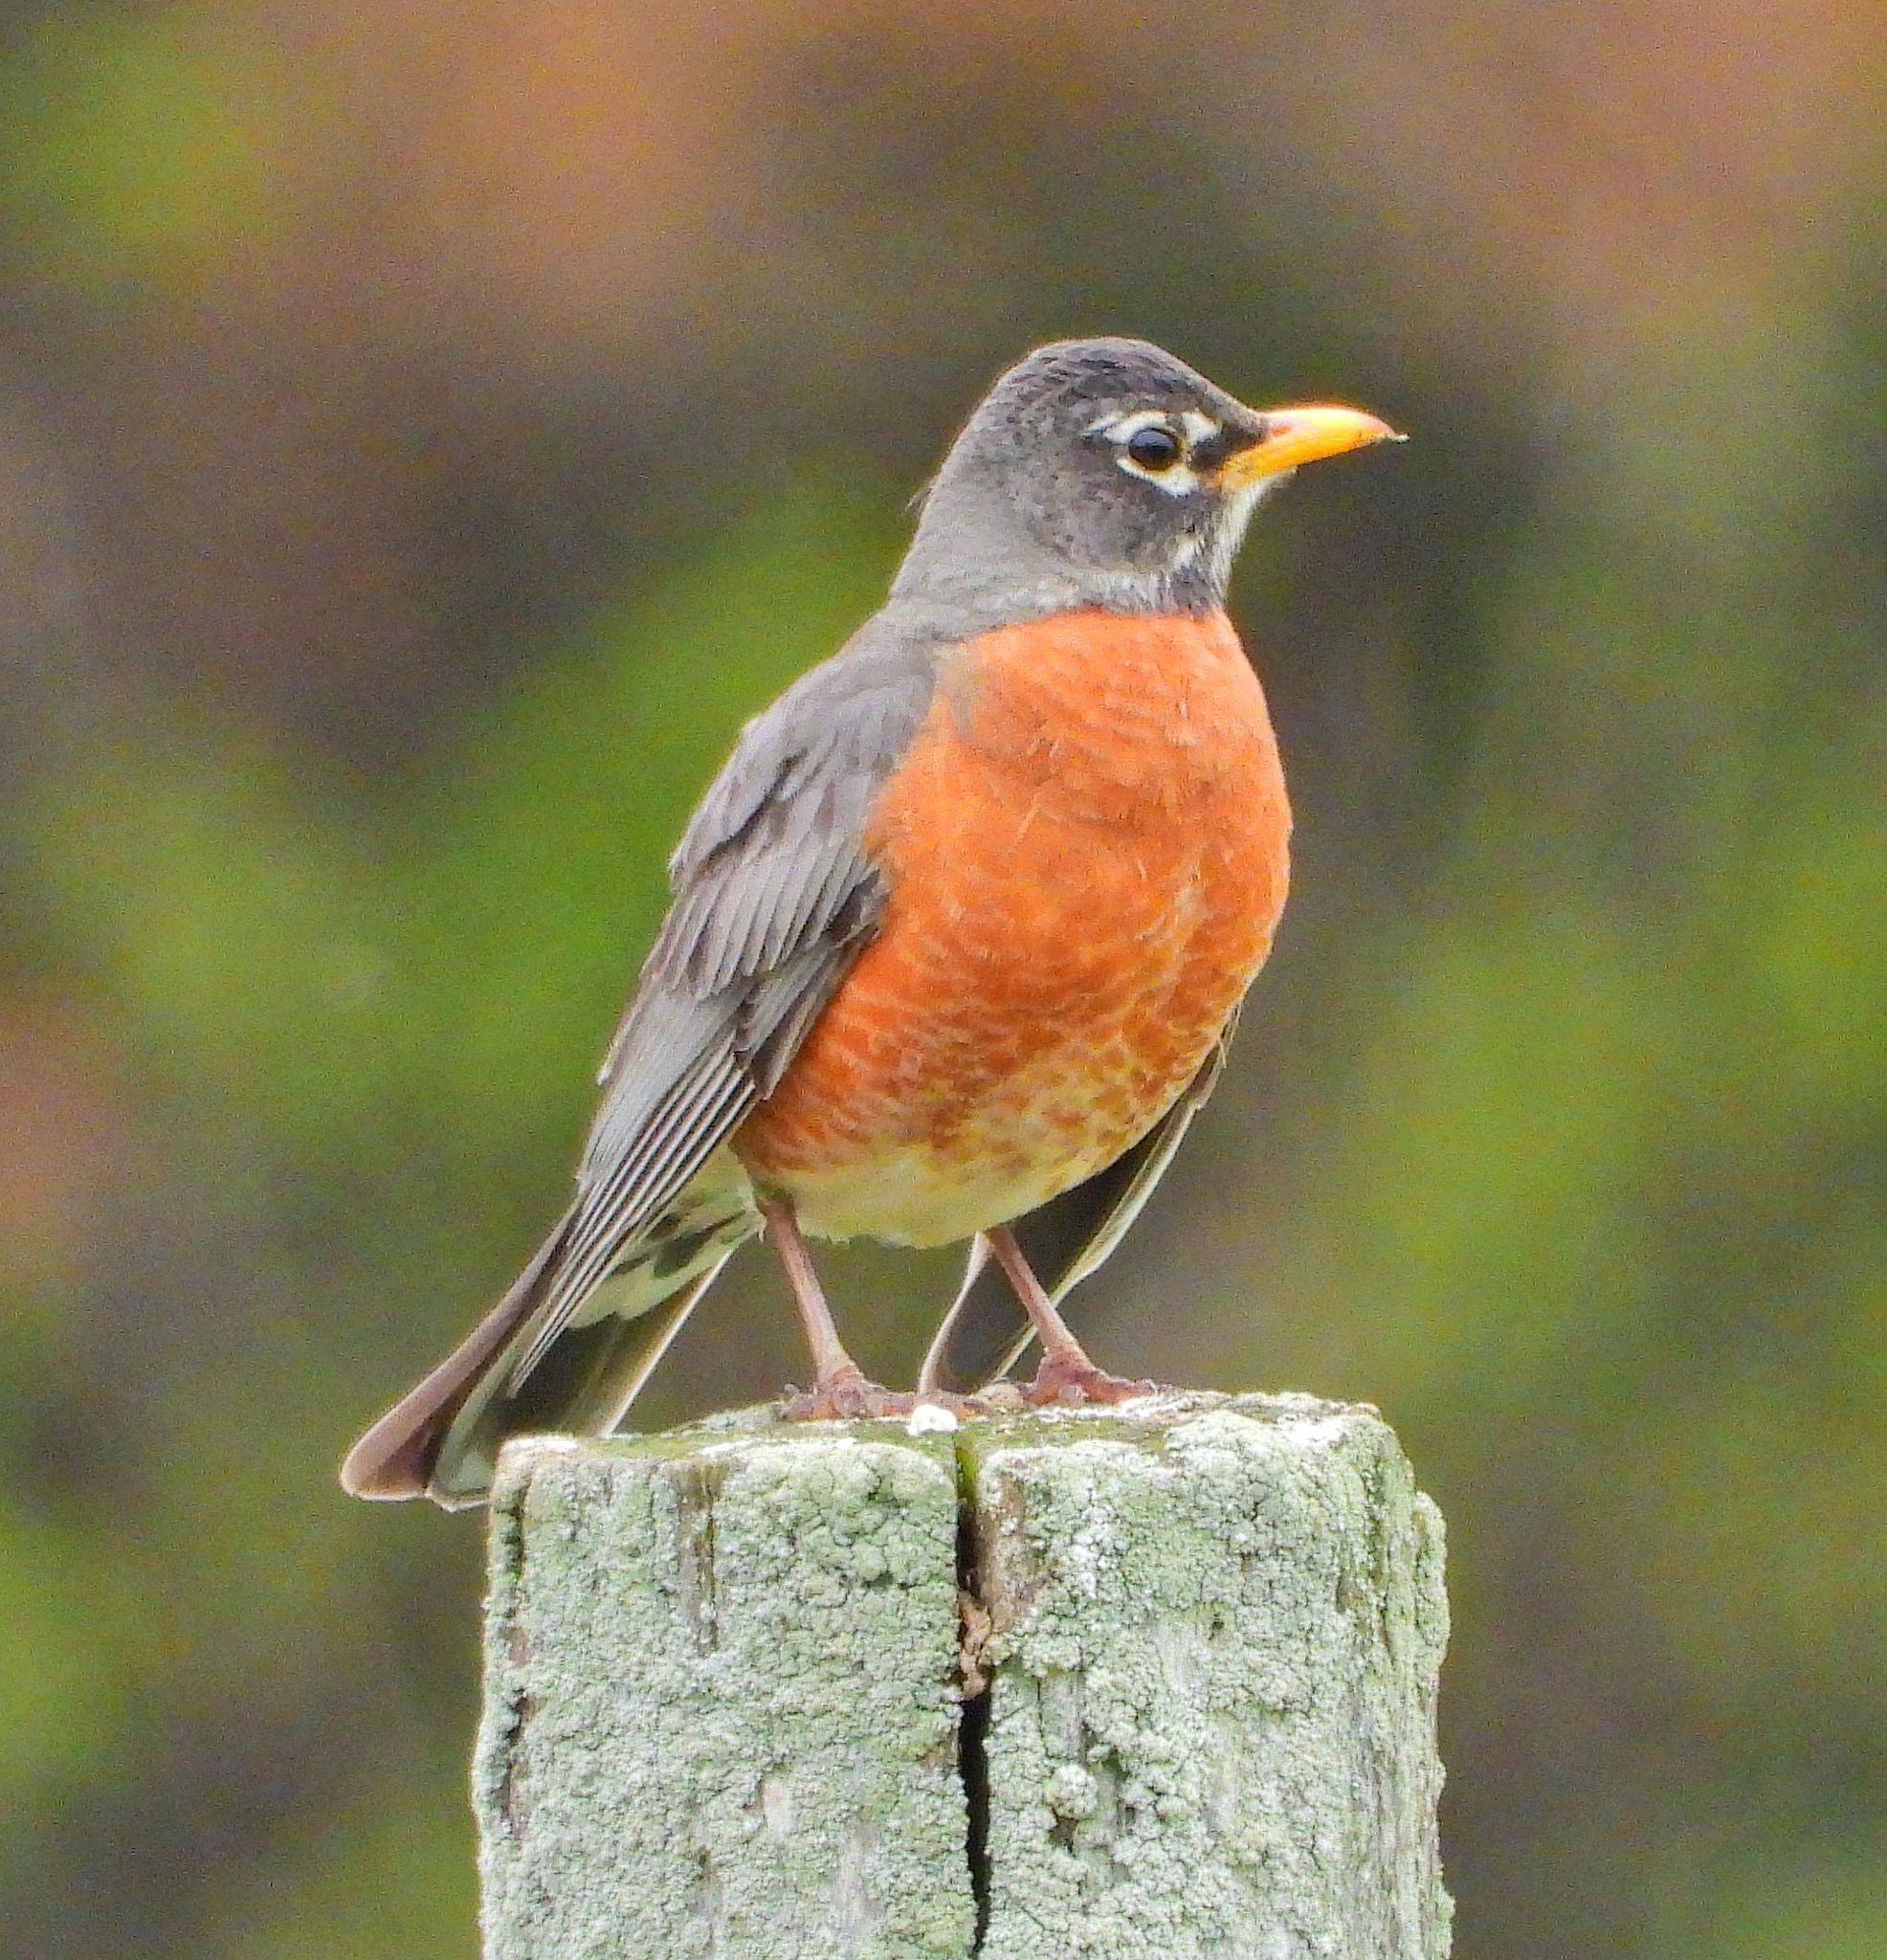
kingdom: Animalia
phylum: Chordata
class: Aves
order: Passeriformes
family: Turdidae
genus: Turdus
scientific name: Turdus migratorius
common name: American robin
